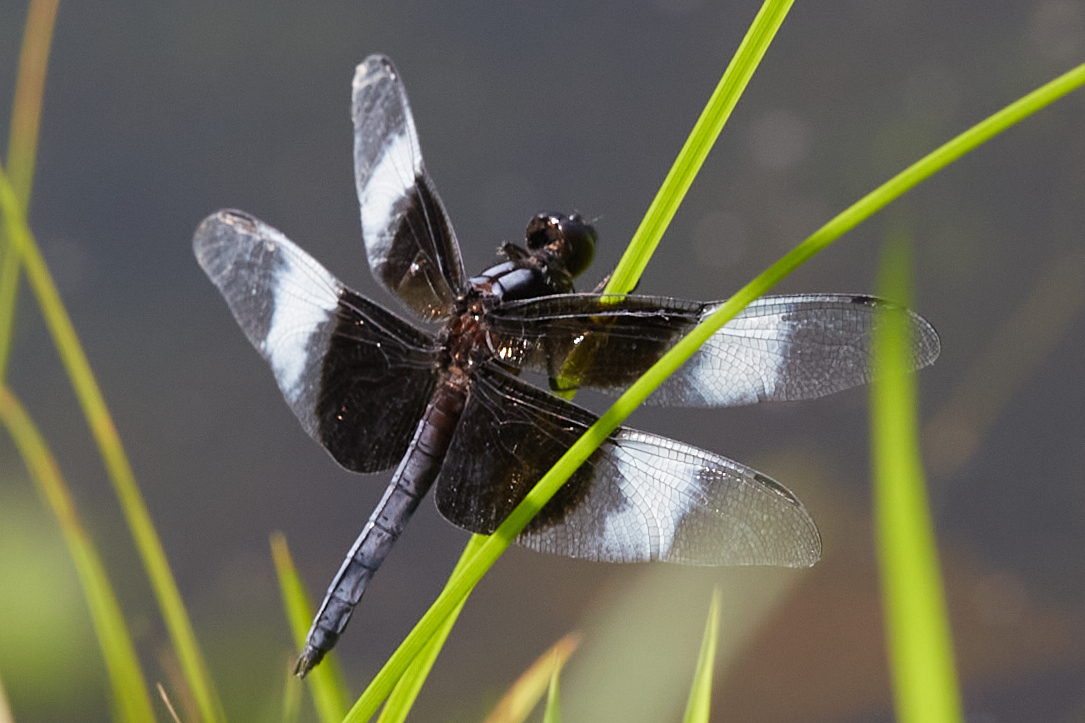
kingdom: Animalia
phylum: Arthropoda
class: Insecta
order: Odonata
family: Libellulidae
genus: Libellula
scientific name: Libellula luctuosa
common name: Widow skimmer
